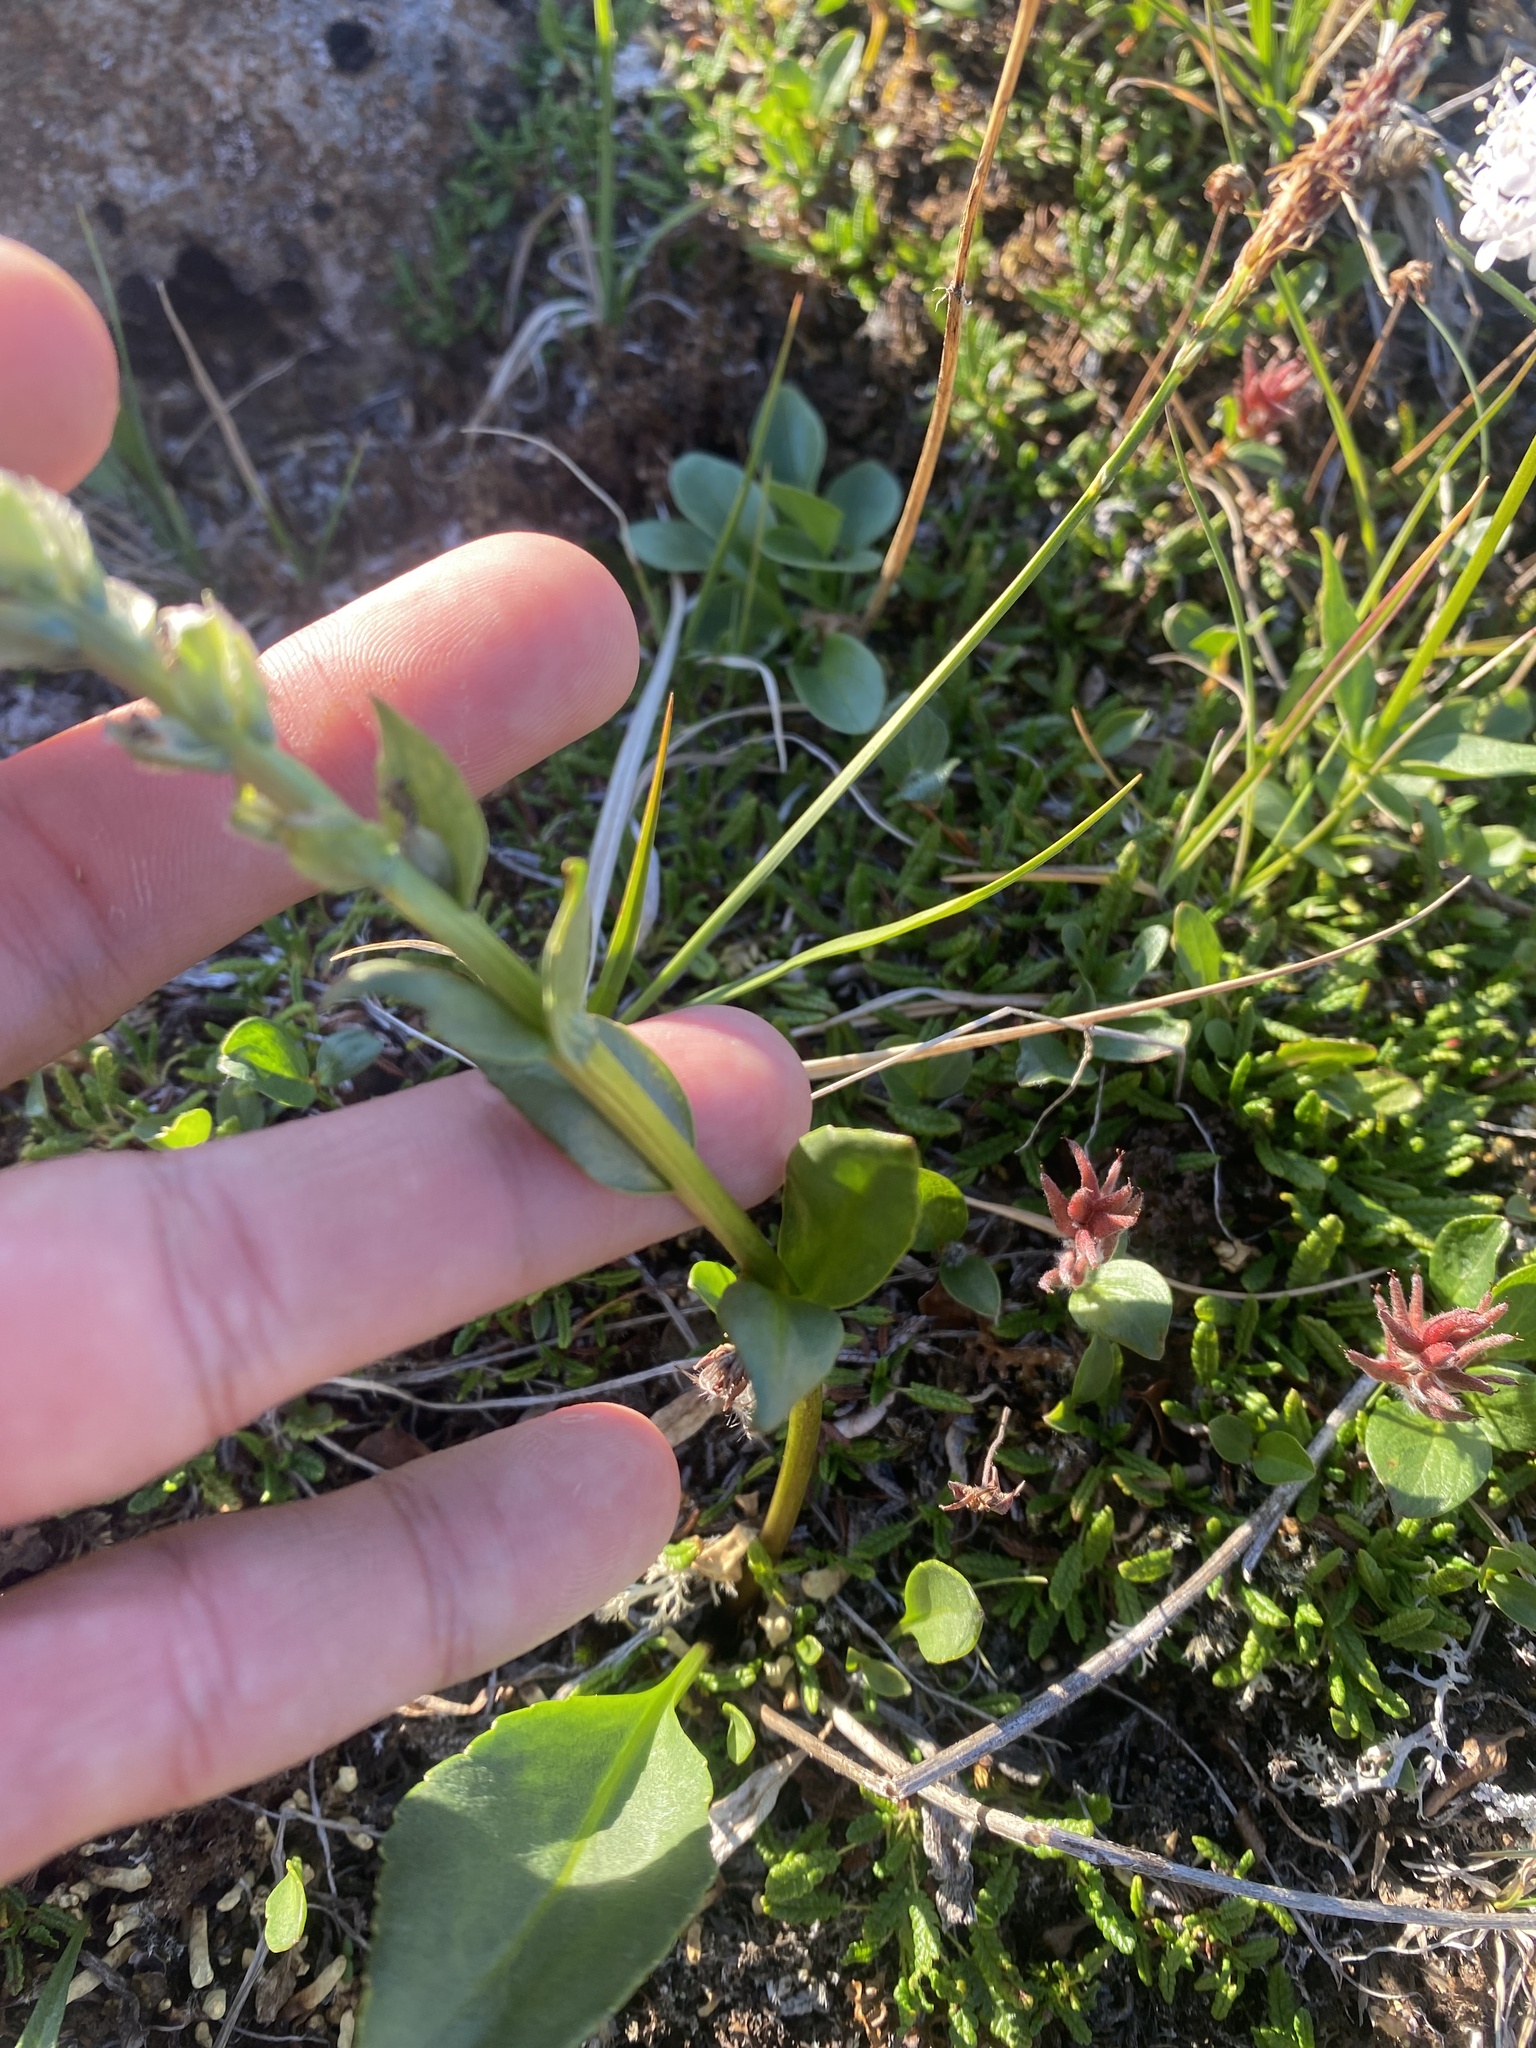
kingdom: Plantae
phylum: Tracheophyta
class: Magnoliopsida
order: Lamiales
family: Plantaginaceae
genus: Lagotis
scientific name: Lagotis glauca
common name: Glaucous weaselsnout
